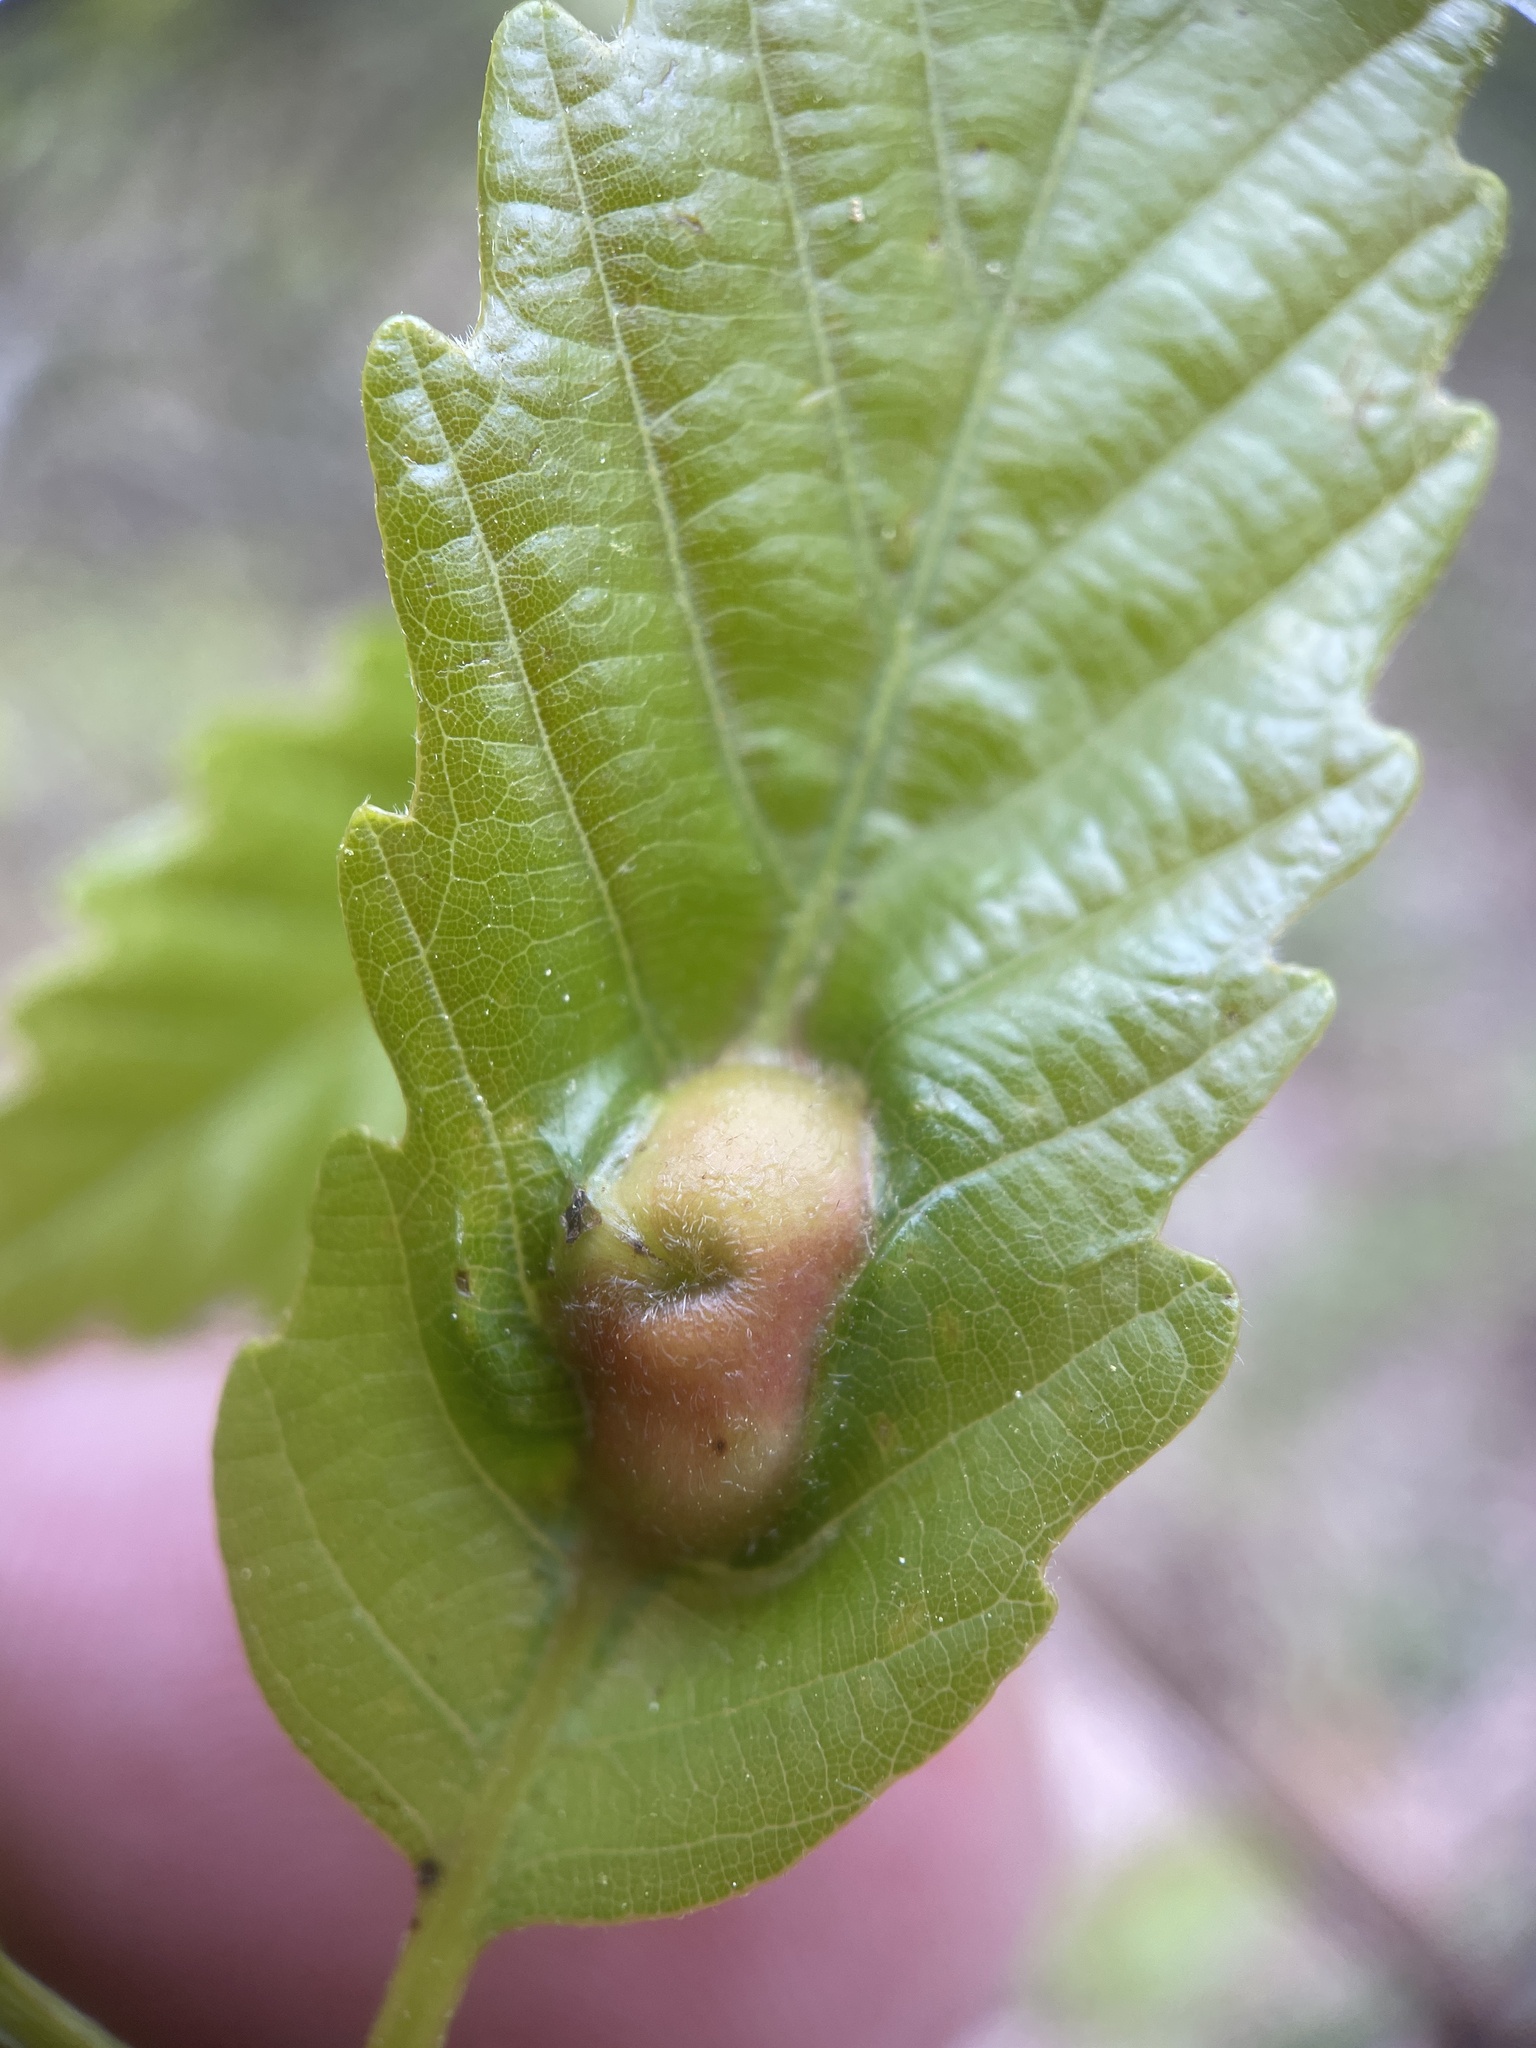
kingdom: Animalia
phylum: Arthropoda
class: Insecta
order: Hymenoptera
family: Cynipidae
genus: Andricus
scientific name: Andricus
